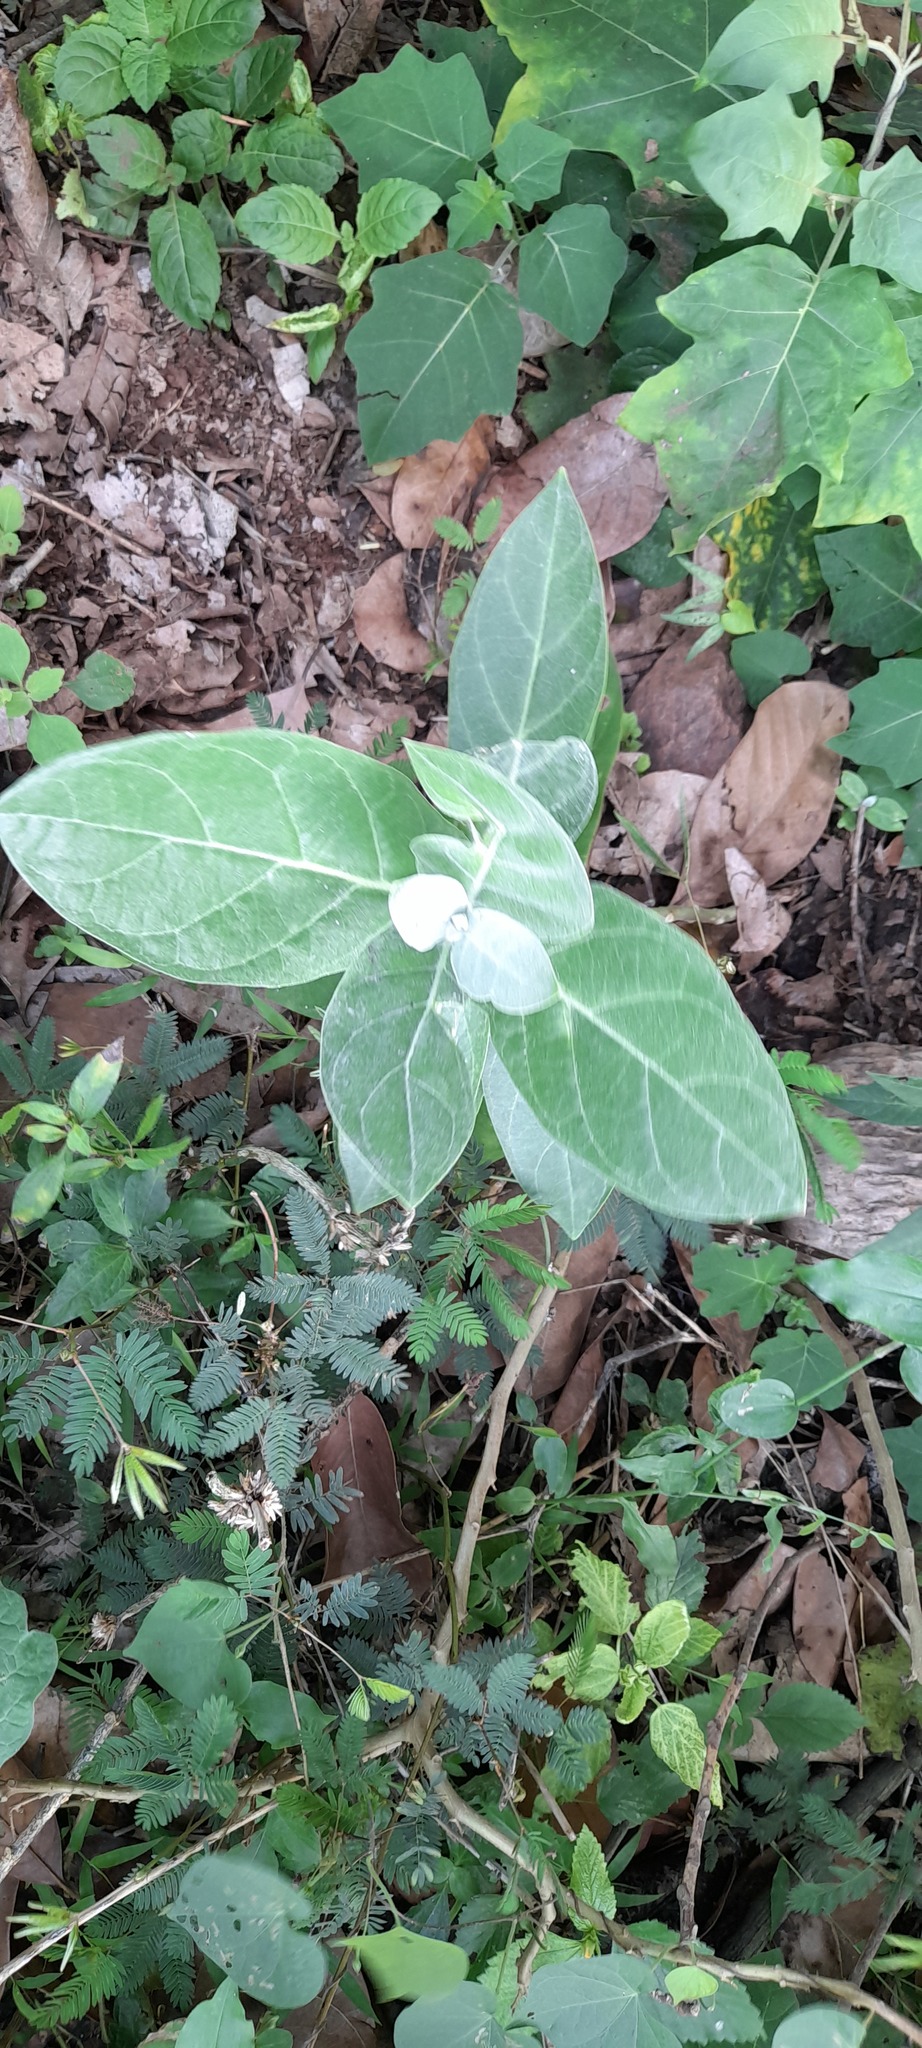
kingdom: Plantae
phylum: Tracheophyta
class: Magnoliopsida
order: Gentianales
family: Apocynaceae
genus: Calotropis
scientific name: Calotropis gigantea
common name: Crown flower
